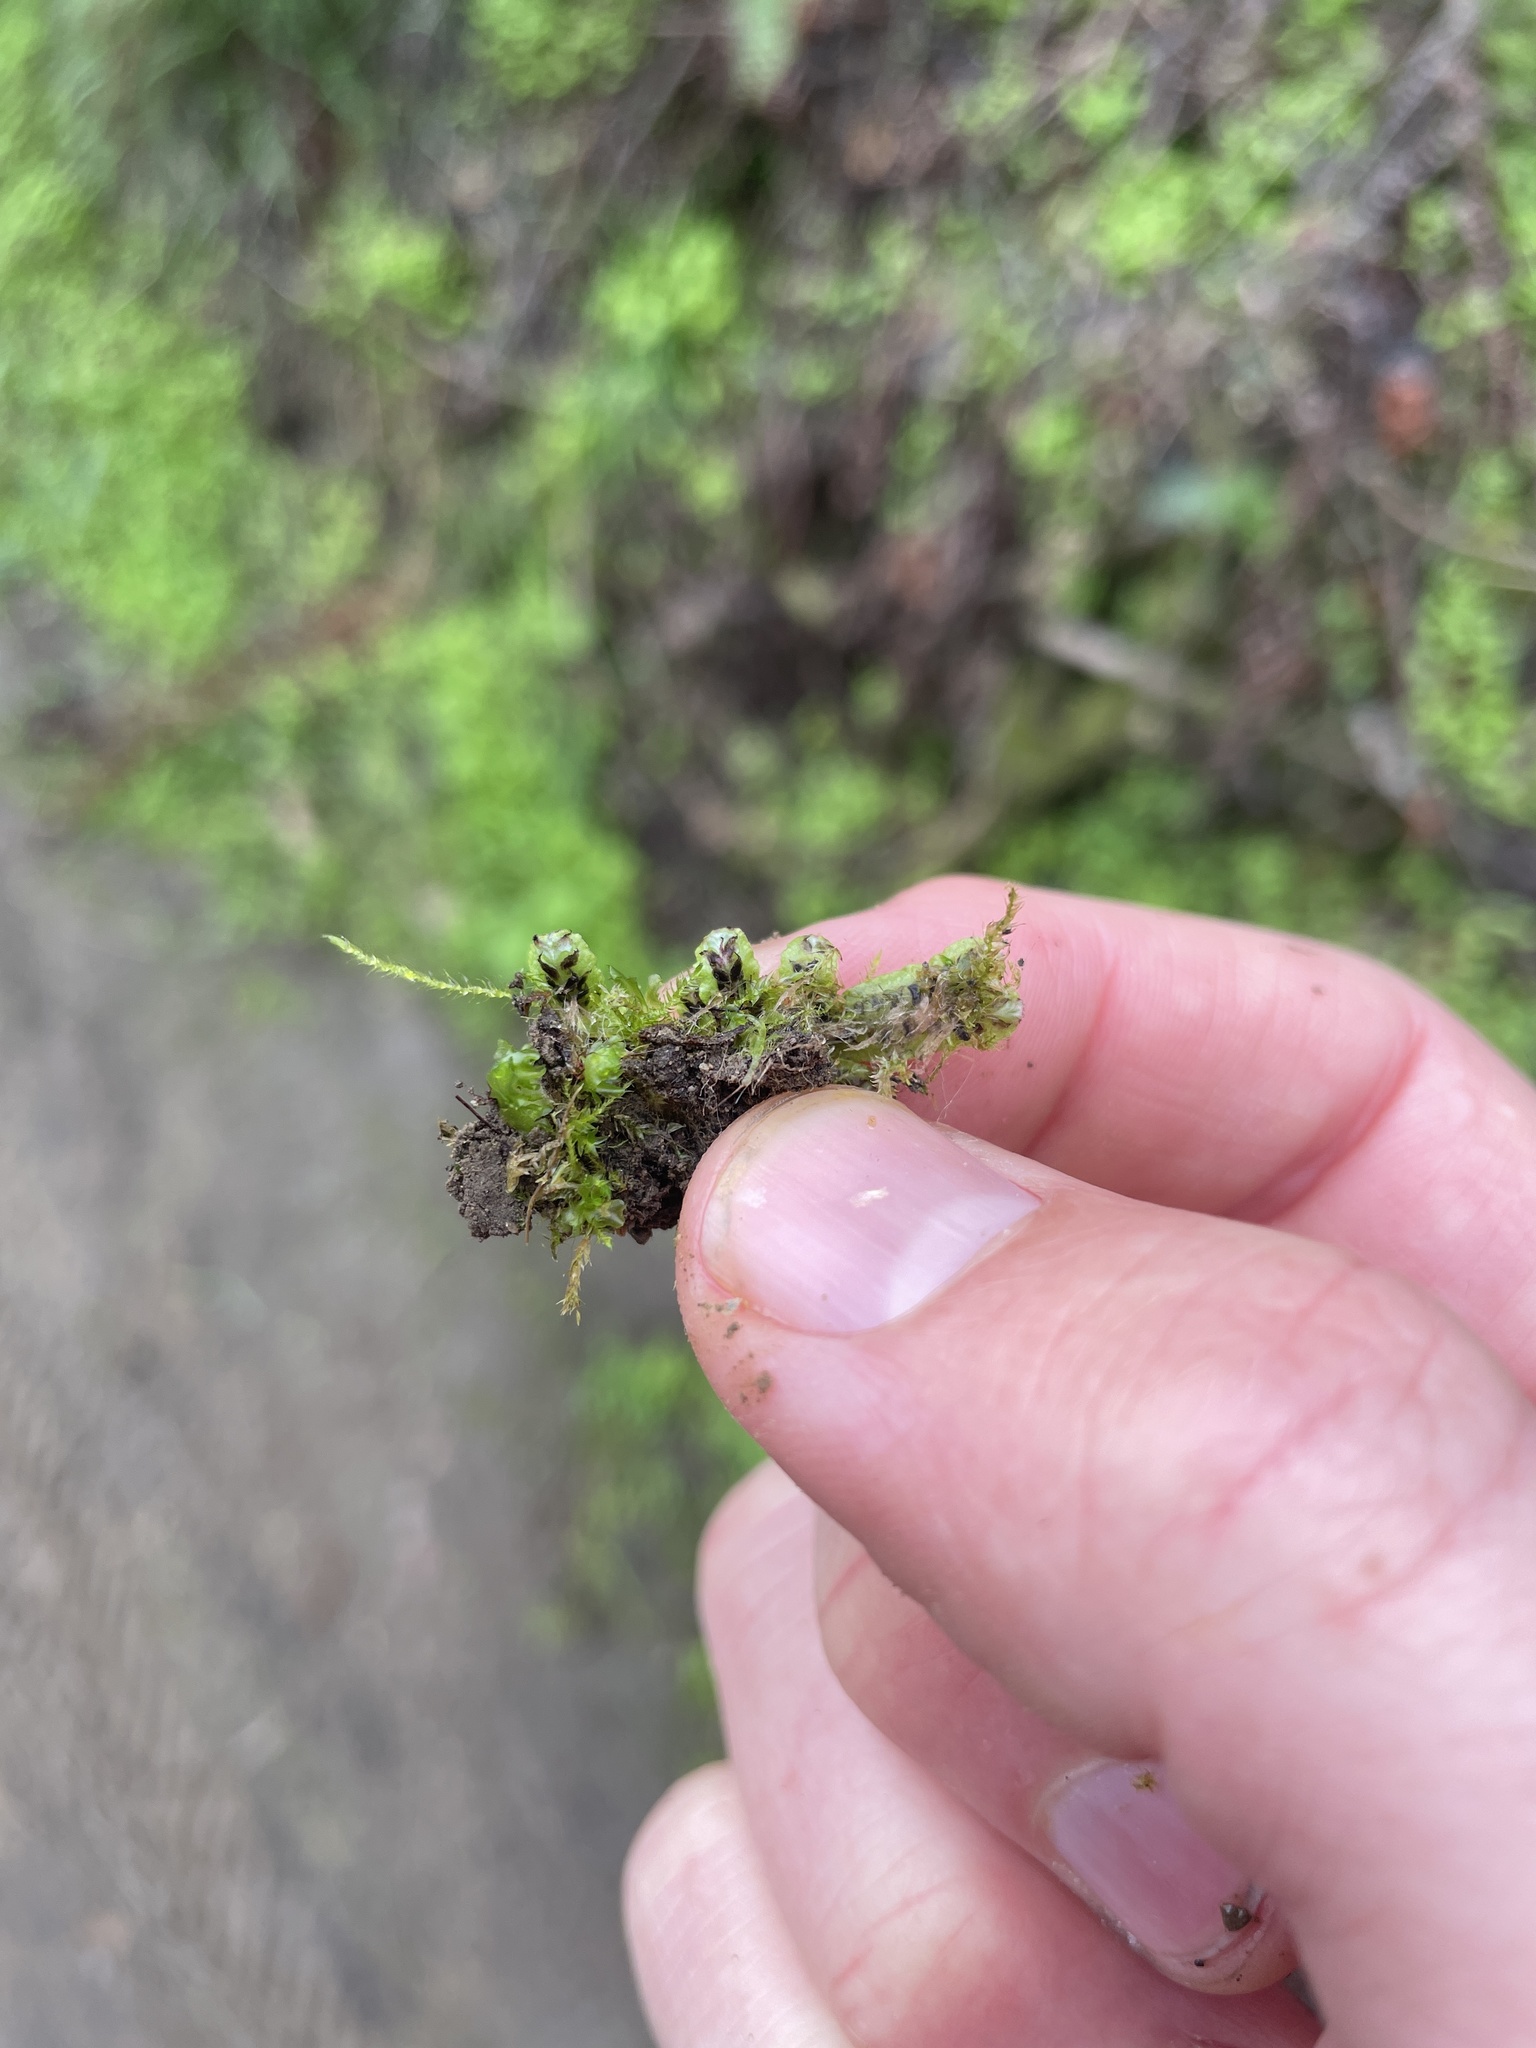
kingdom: Plantae
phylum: Marchantiophyta
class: Marchantiopsida
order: Marchantiales
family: Targioniaceae
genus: Targionia
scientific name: Targionia hypophylla
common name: Orobus-seed liverwort
